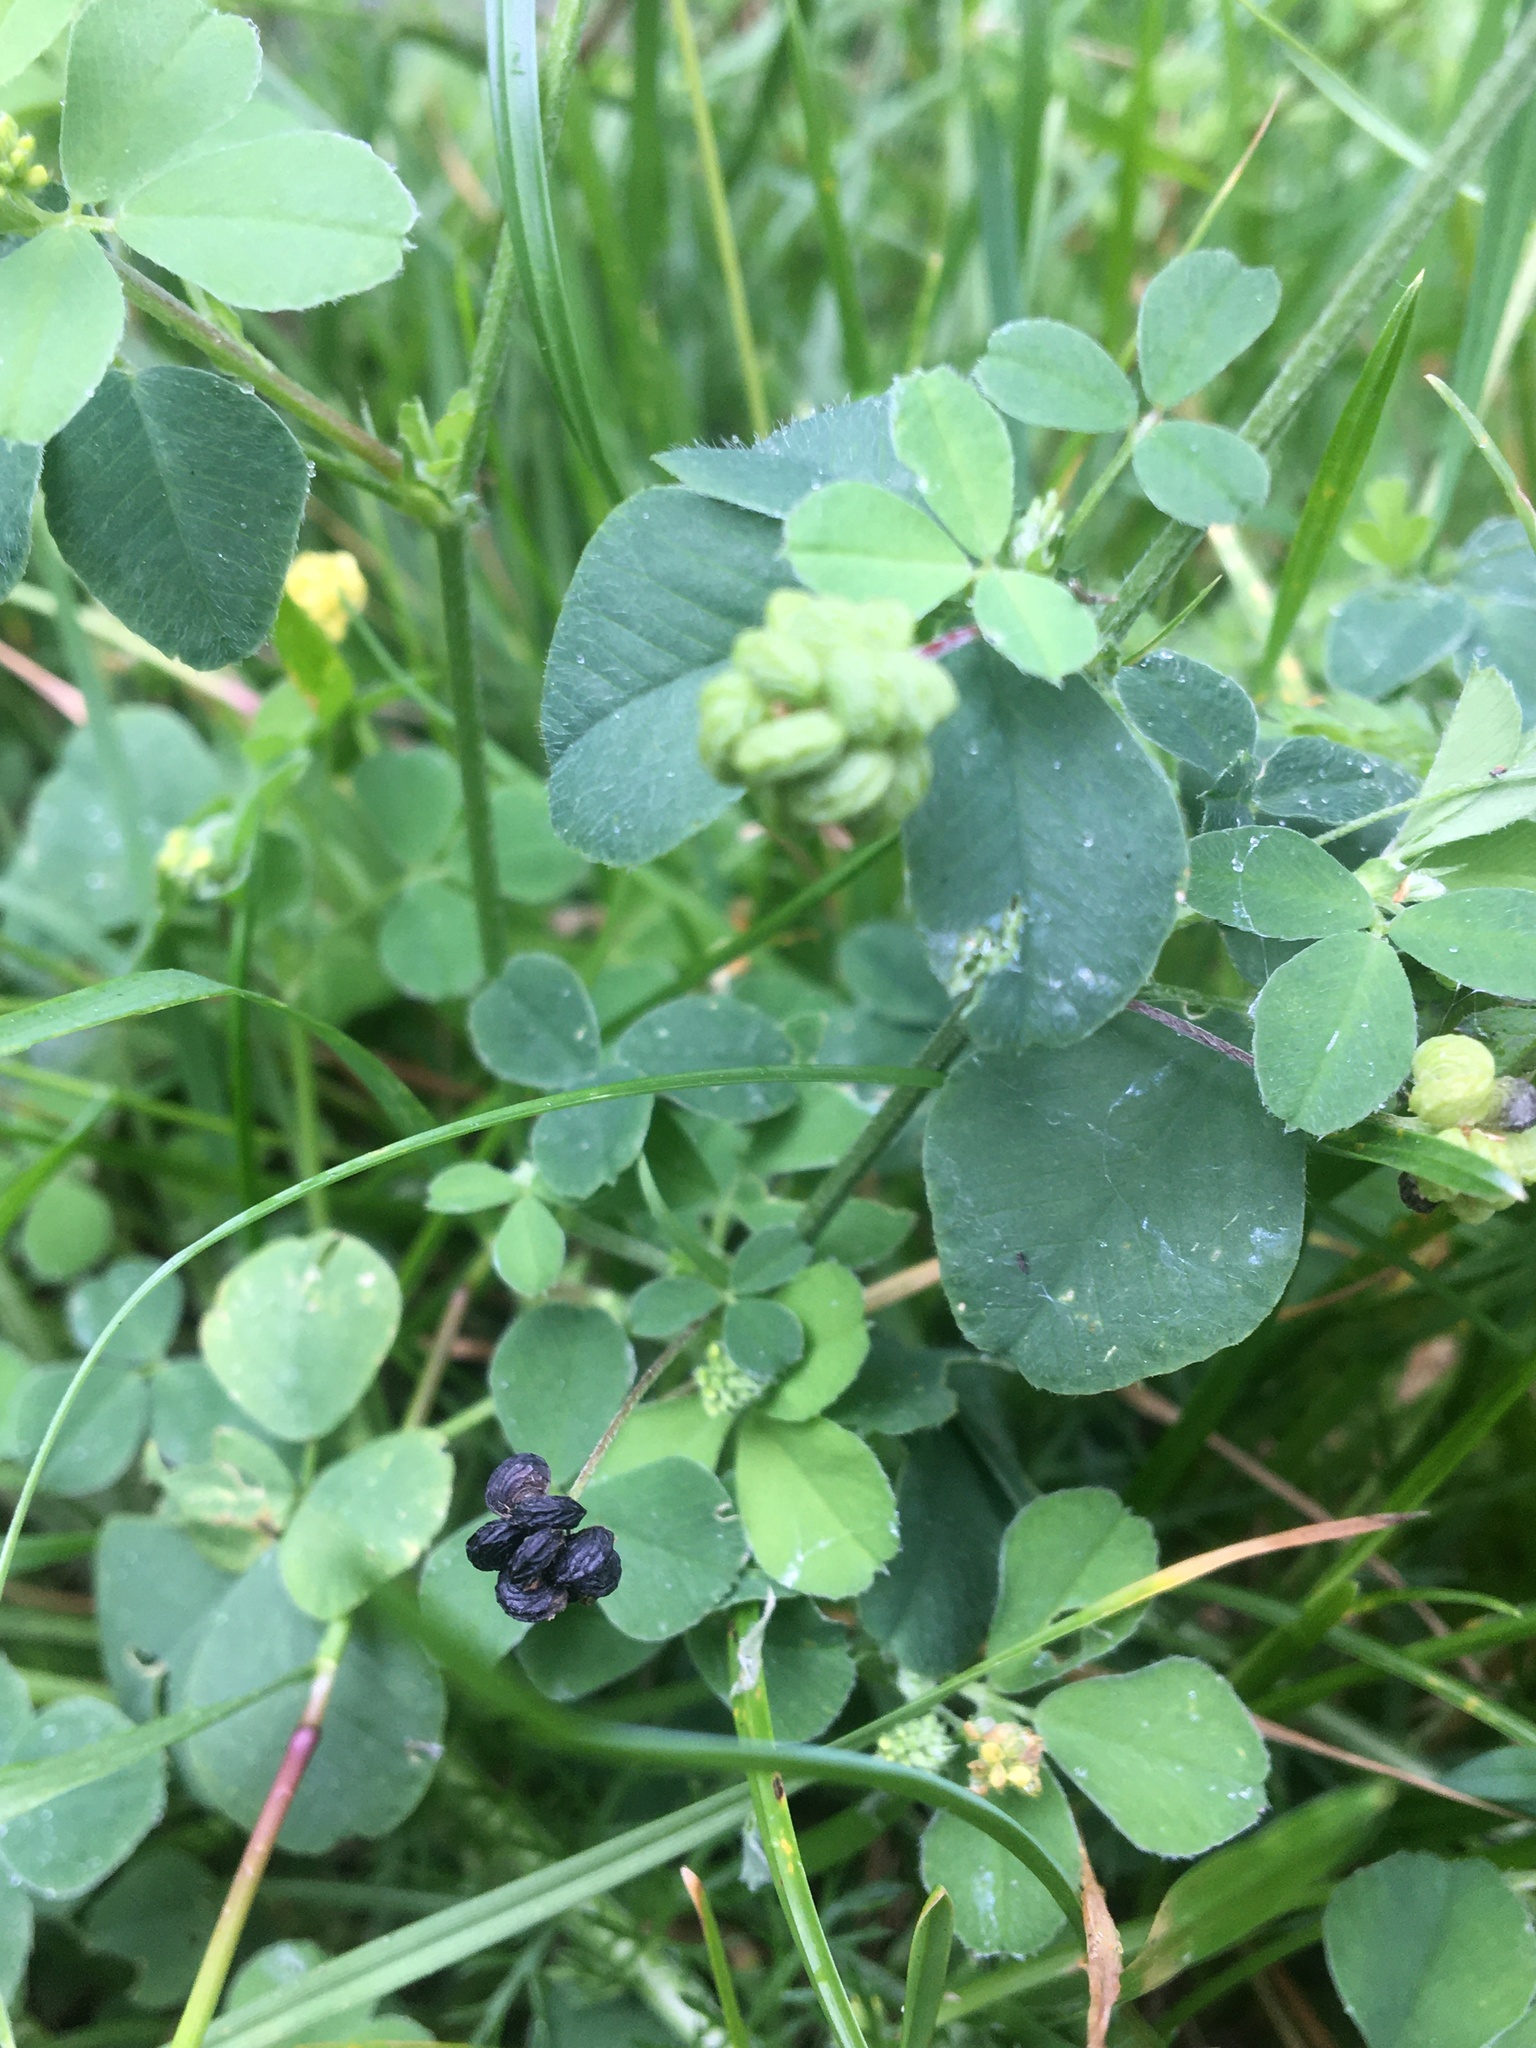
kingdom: Plantae
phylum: Tracheophyta
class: Magnoliopsida
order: Fabales
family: Fabaceae
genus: Medicago
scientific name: Medicago lupulina
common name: Black medick
